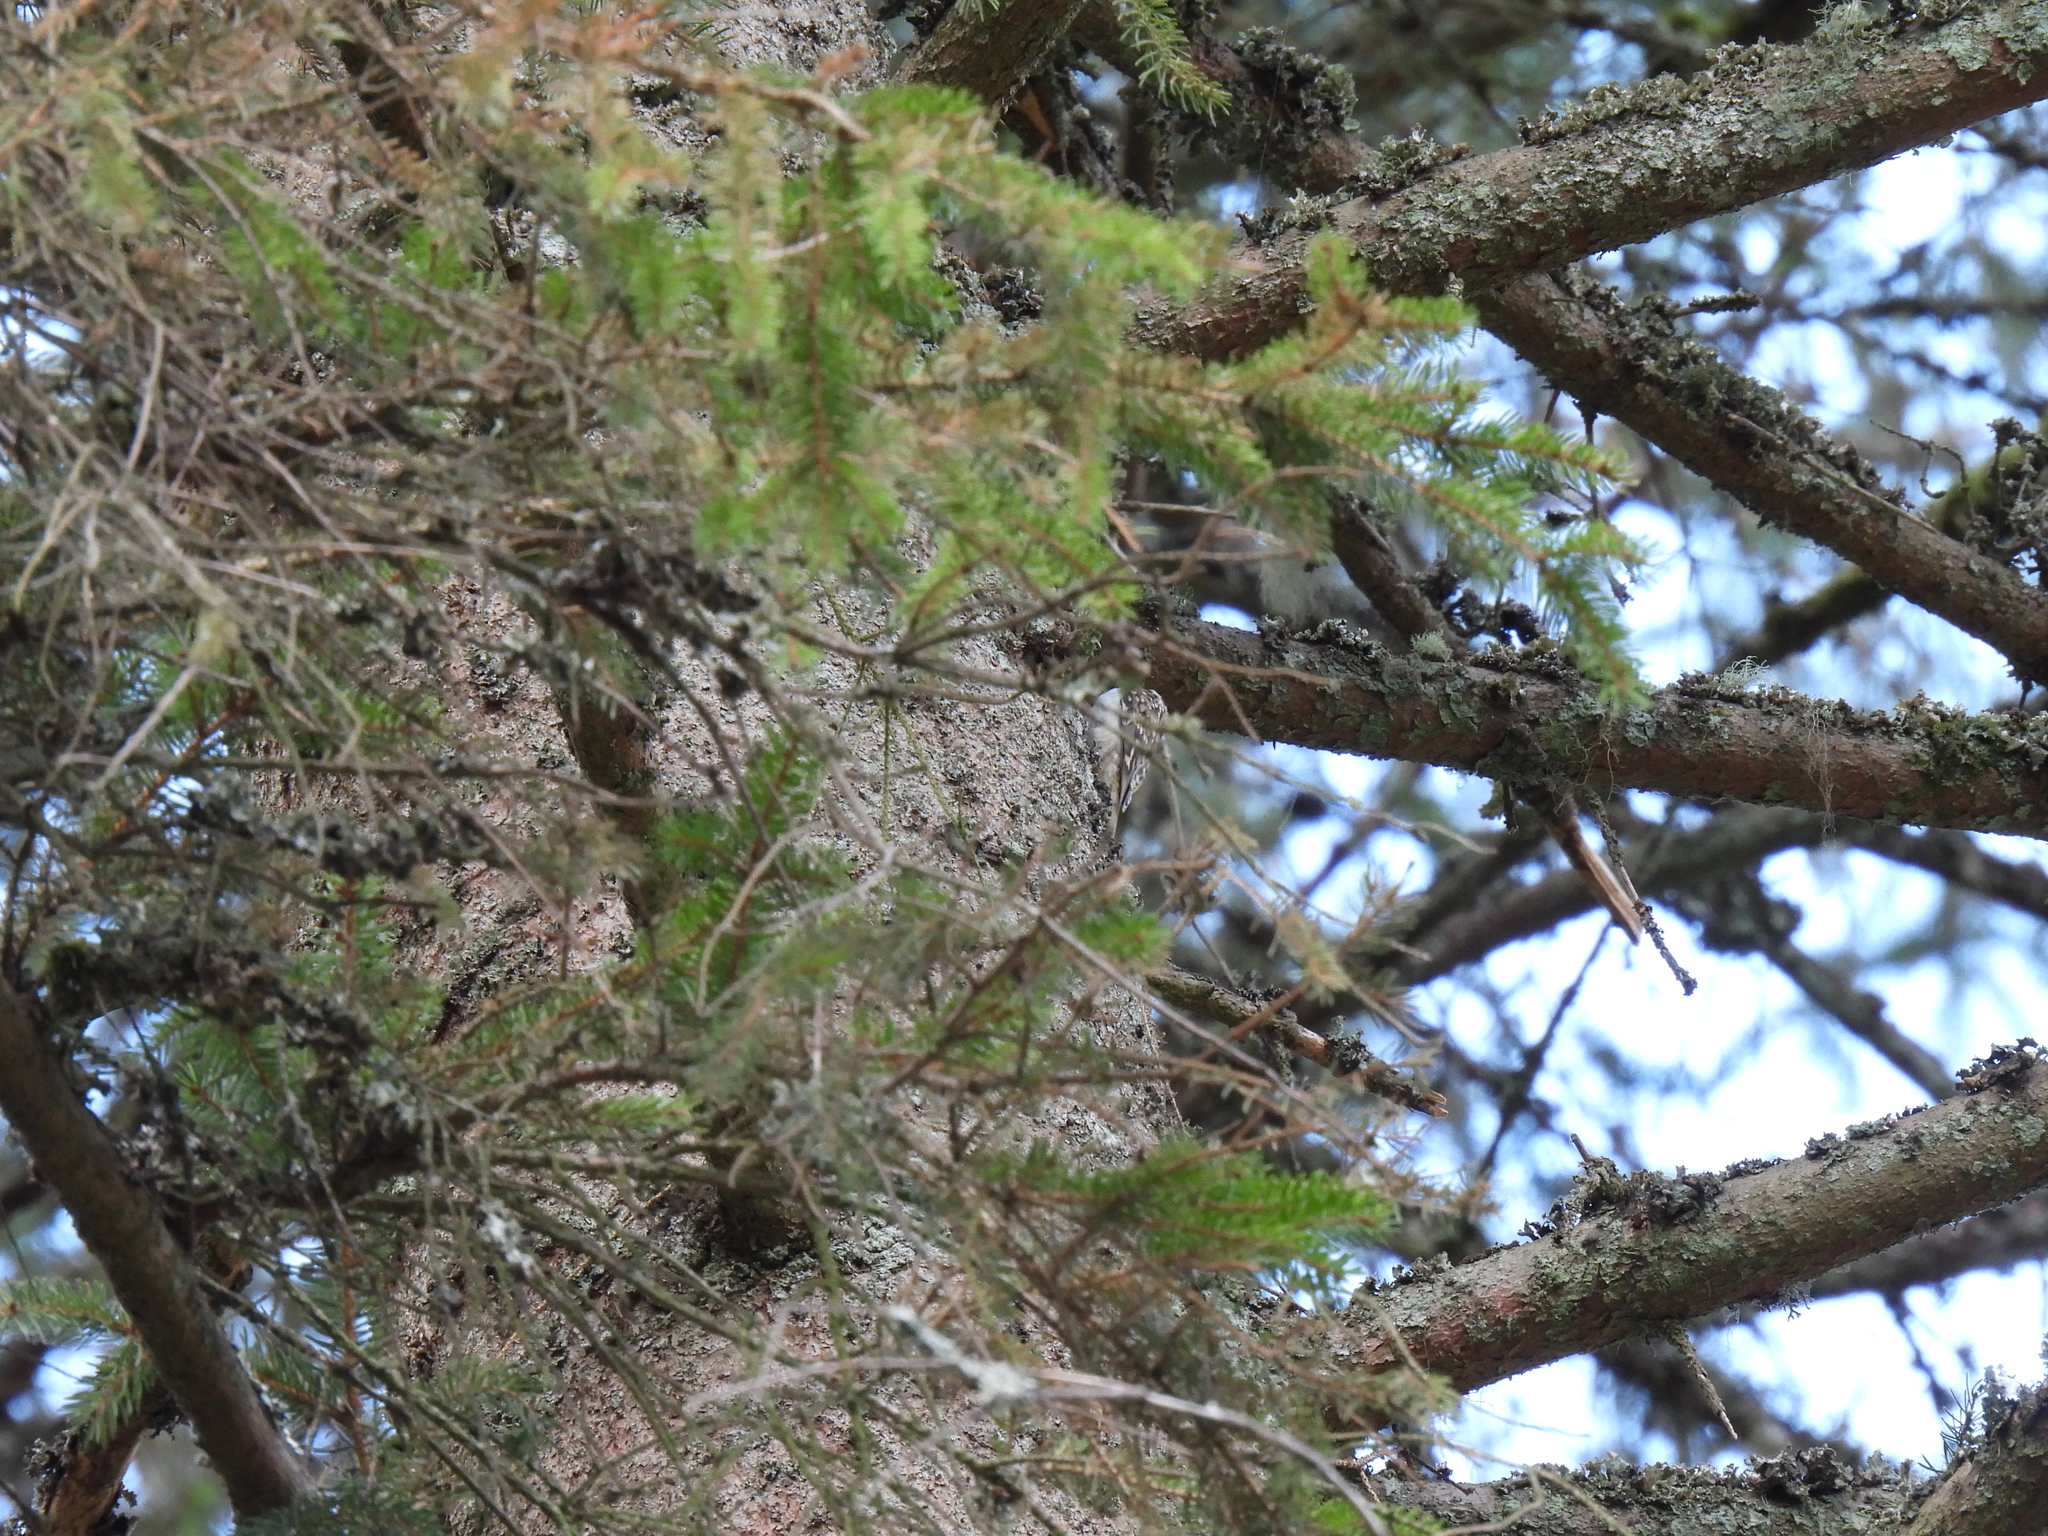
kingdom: Animalia
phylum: Chordata
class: Aves
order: Passeriformes
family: Certhiidae
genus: Certhia
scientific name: Certhia familiaris
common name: Eurasian treecreeper
